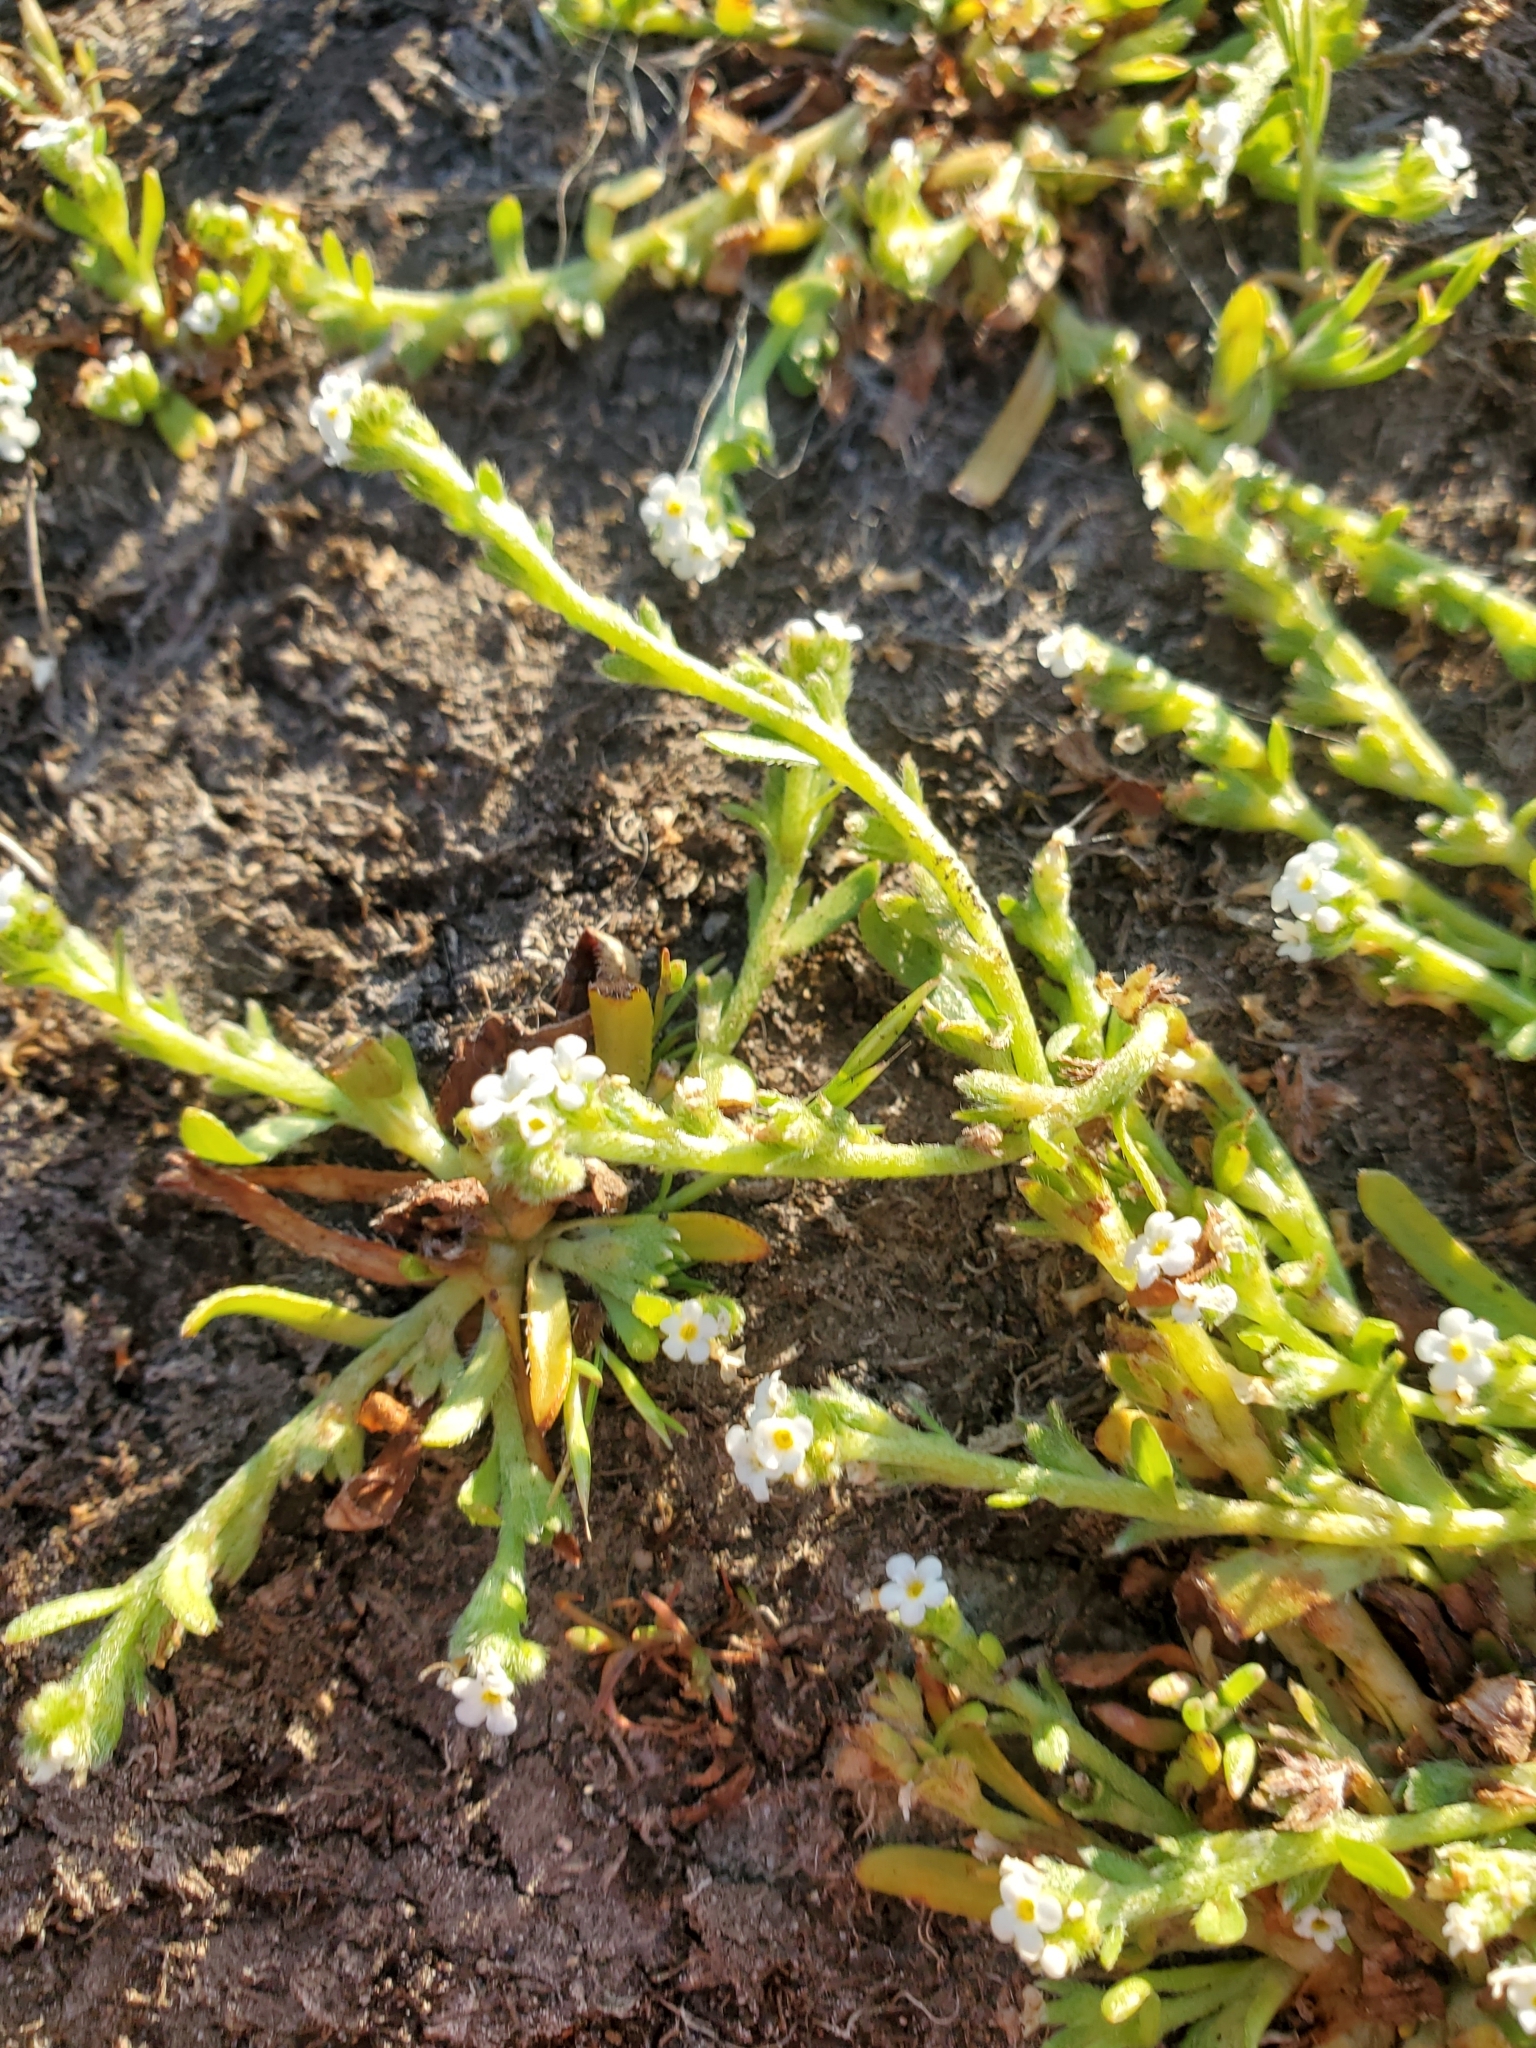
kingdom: Plantae
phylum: Tracheophyta
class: Magnoliopsida
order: Boraginales
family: Boraginaceae
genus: Plagiobothrys
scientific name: Plagiobothrys scouleri
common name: White forget-me-not
